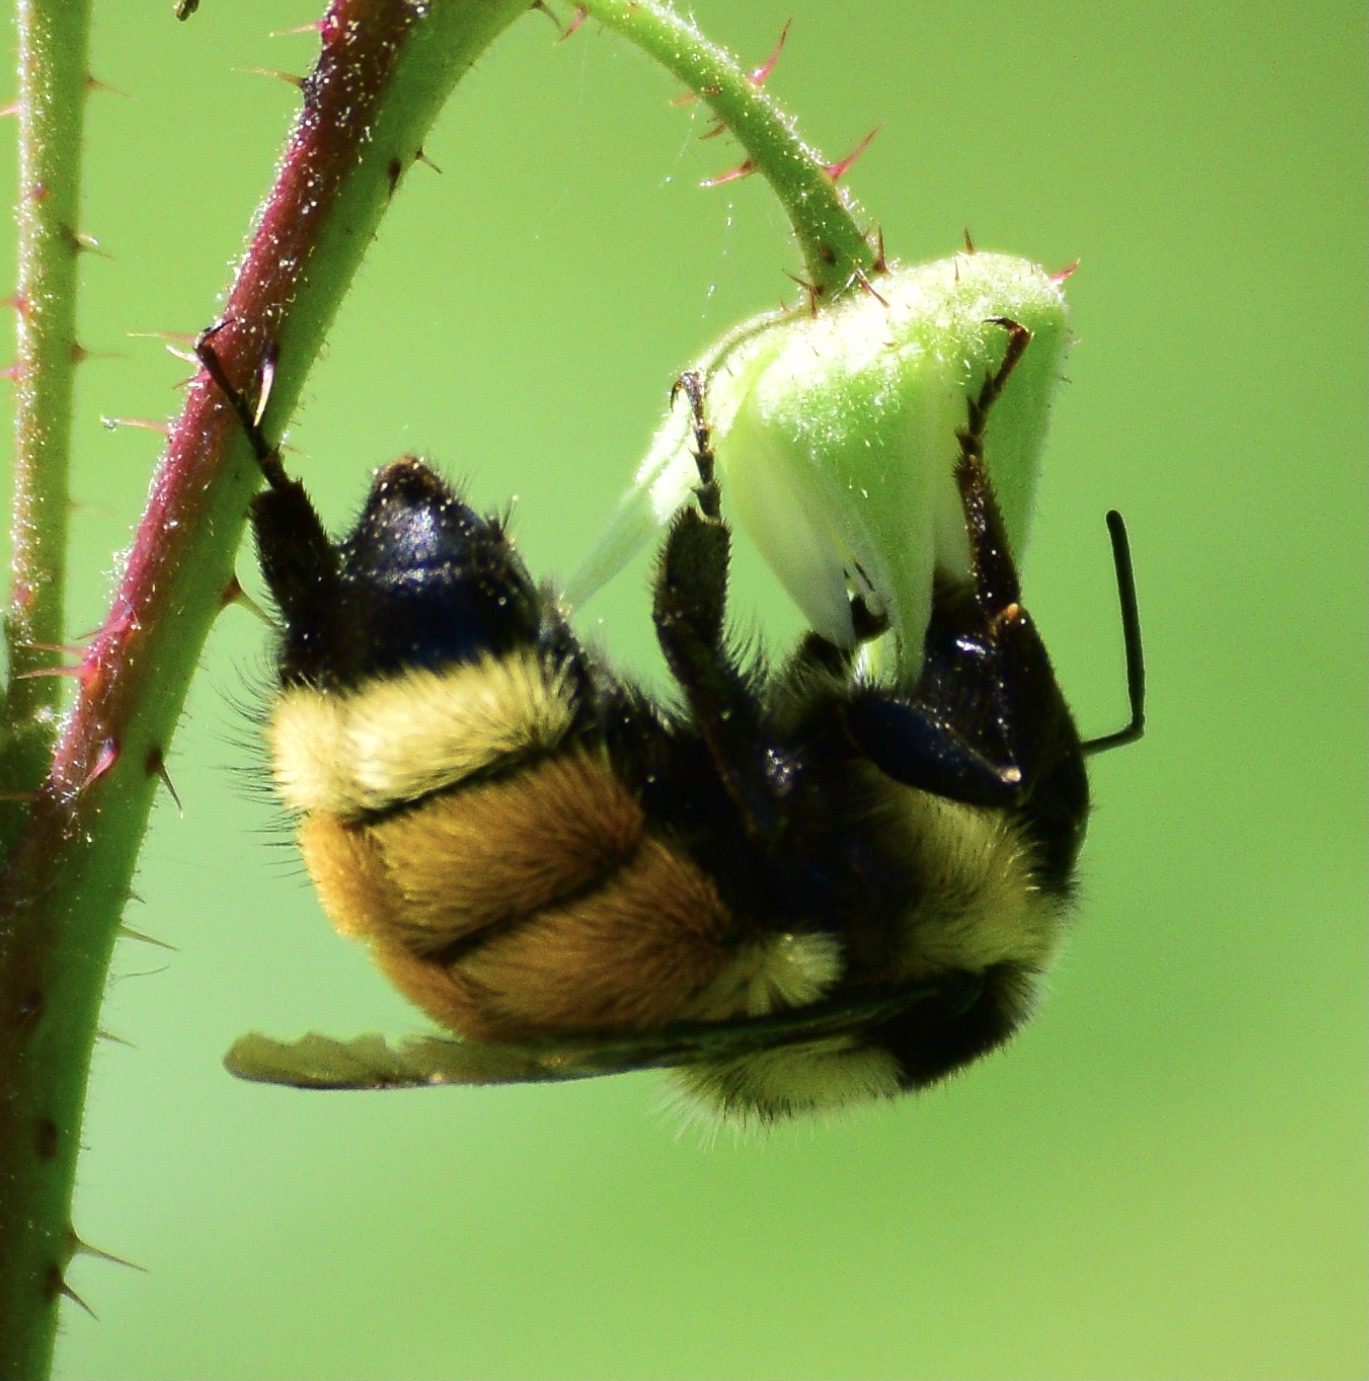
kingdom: Animalia
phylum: Arthropoda
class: Insecta
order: Hymenoptera
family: Apidae
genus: Bombus
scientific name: Bombus ternarius
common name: Tri-colored bumble bee
